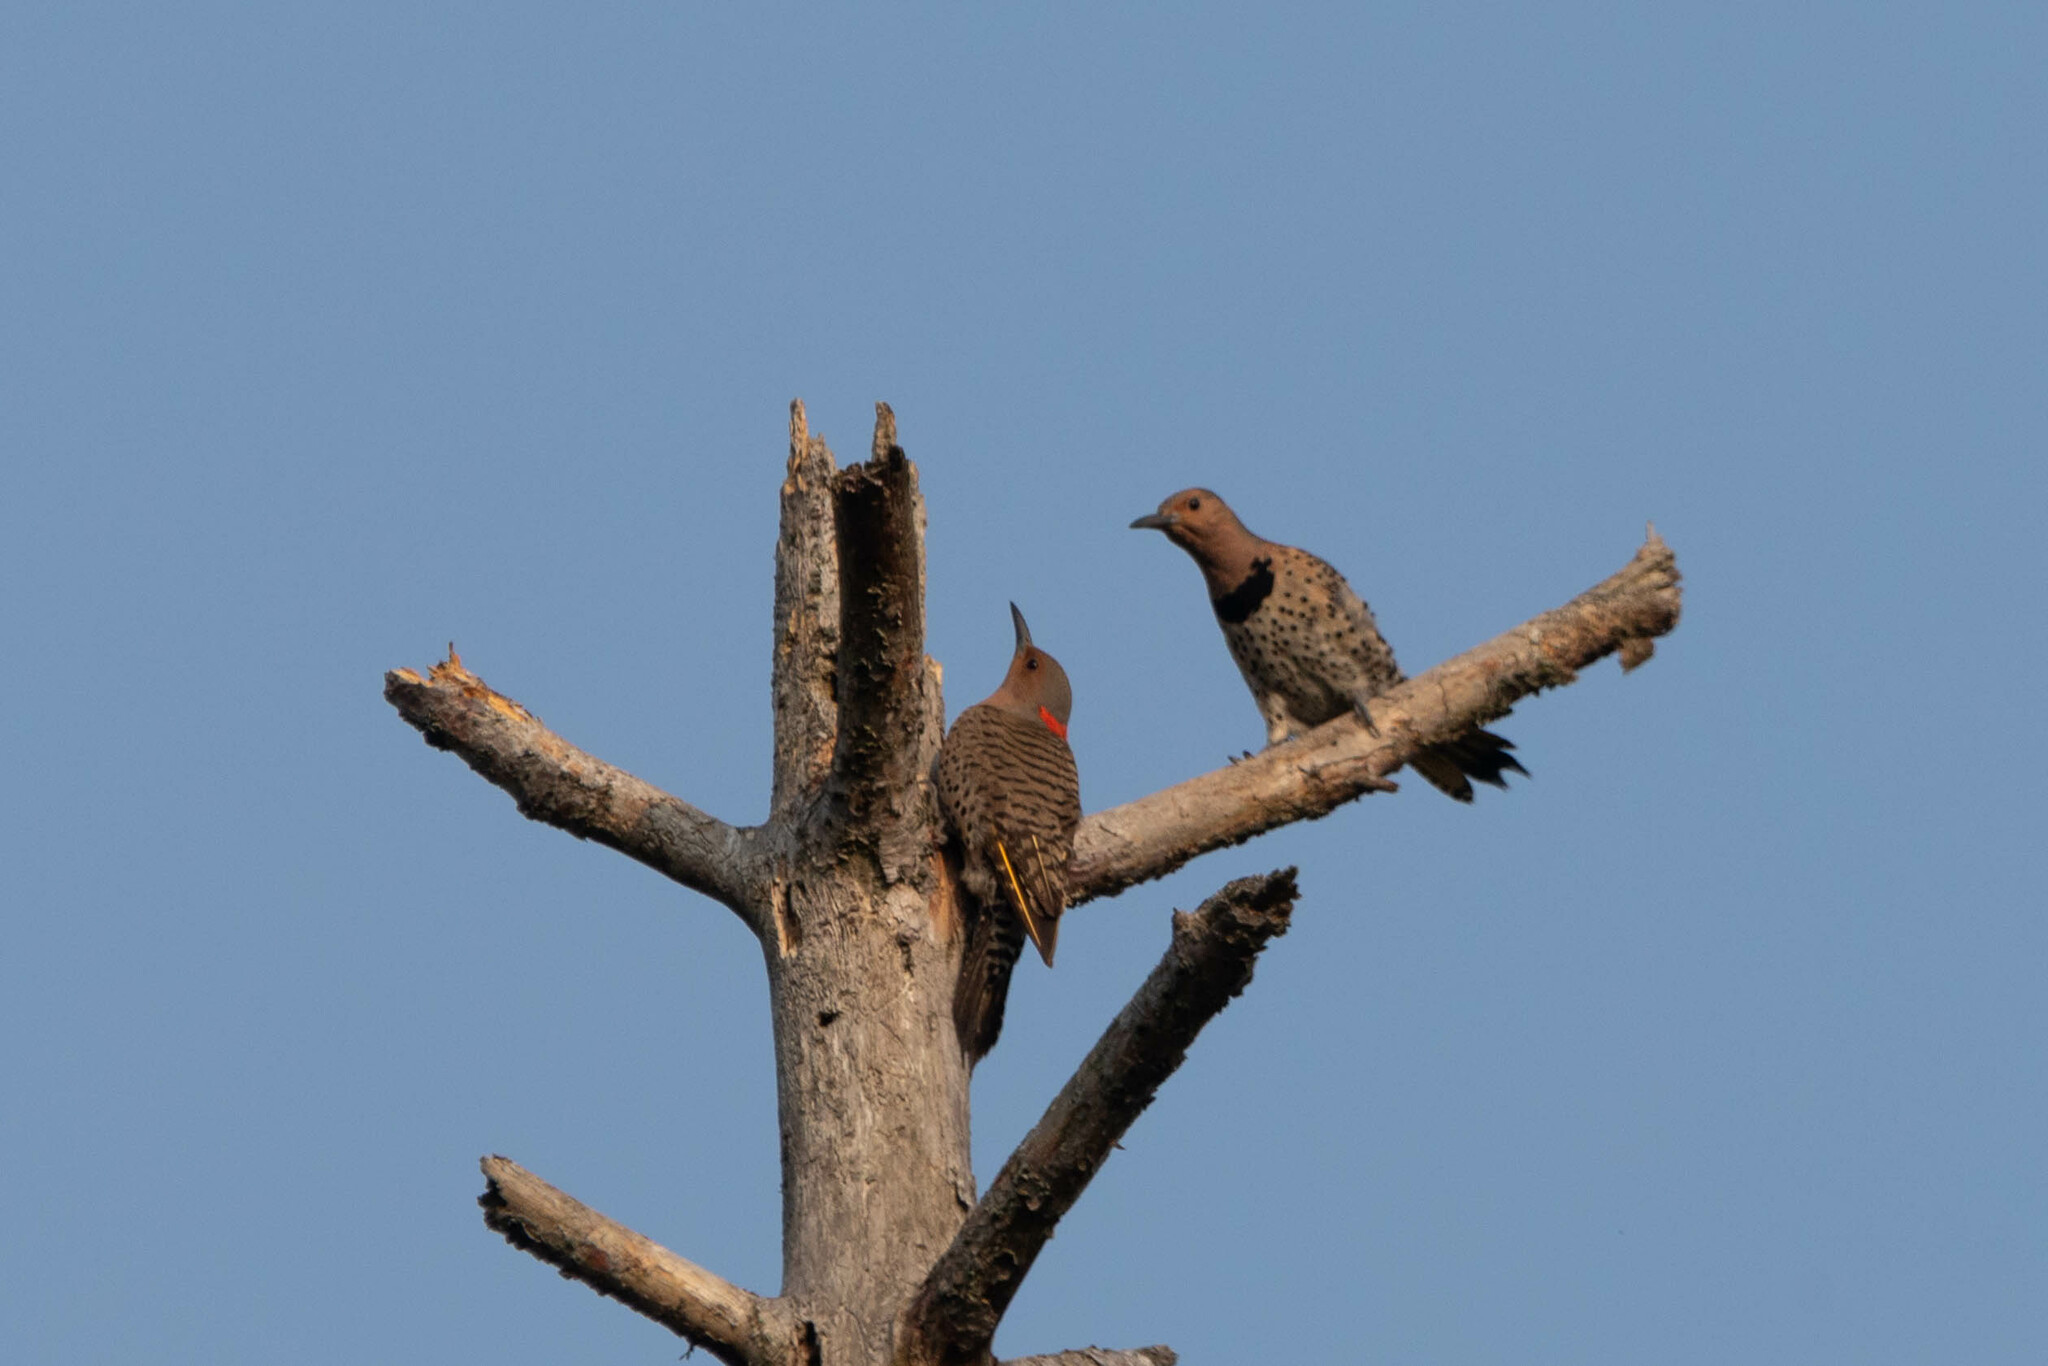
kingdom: Animalia
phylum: Chordata
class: Aves
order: Piciformes
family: Picidae
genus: Colaptes
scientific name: Colaptes auratus
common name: Northern flicker
